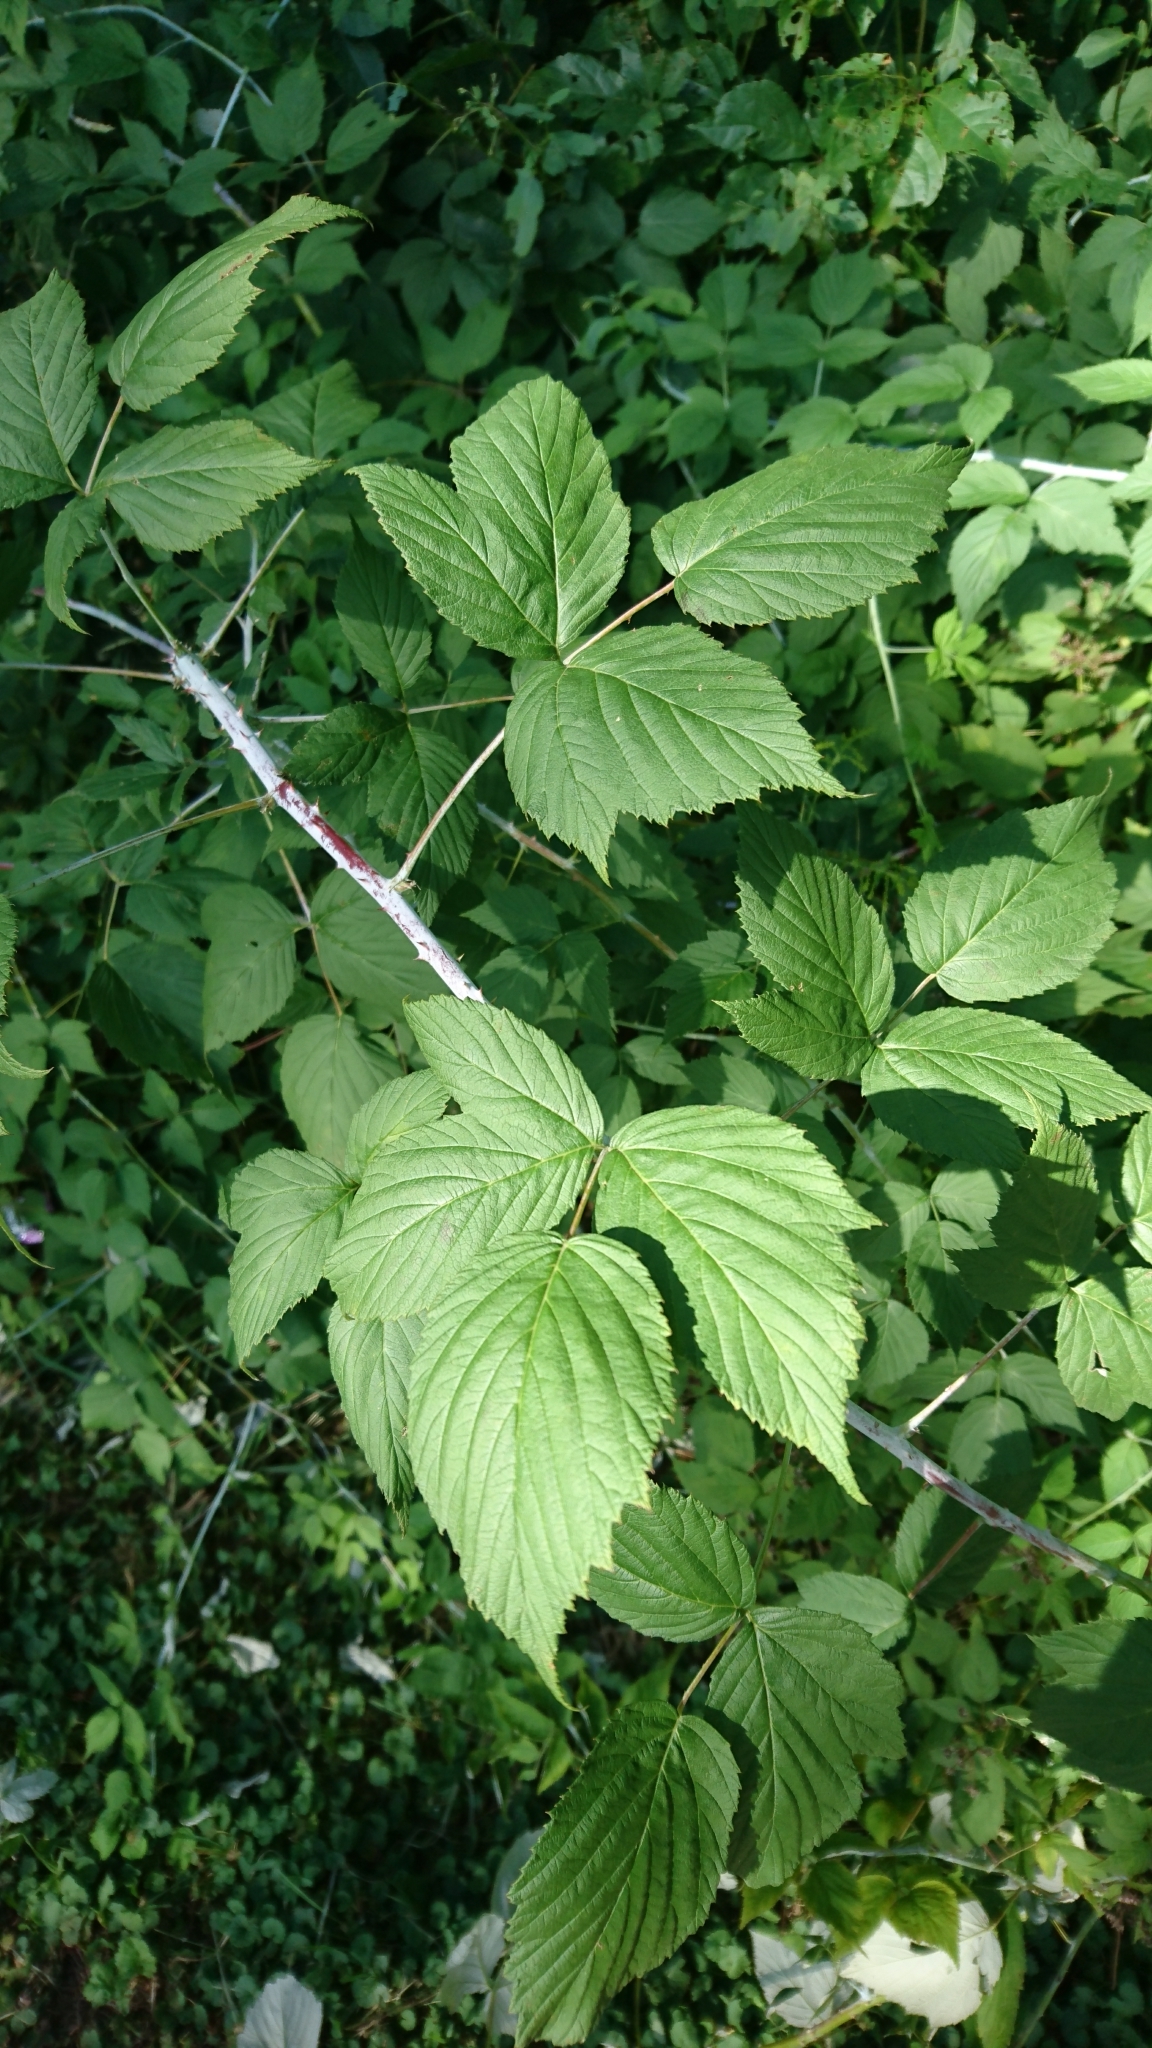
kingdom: Plantae
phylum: Tracheophyta
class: Magnoliopsida
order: Rosales
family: Rosaceae
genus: Rubus
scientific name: Rubus occidentalis
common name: Black raspberry
